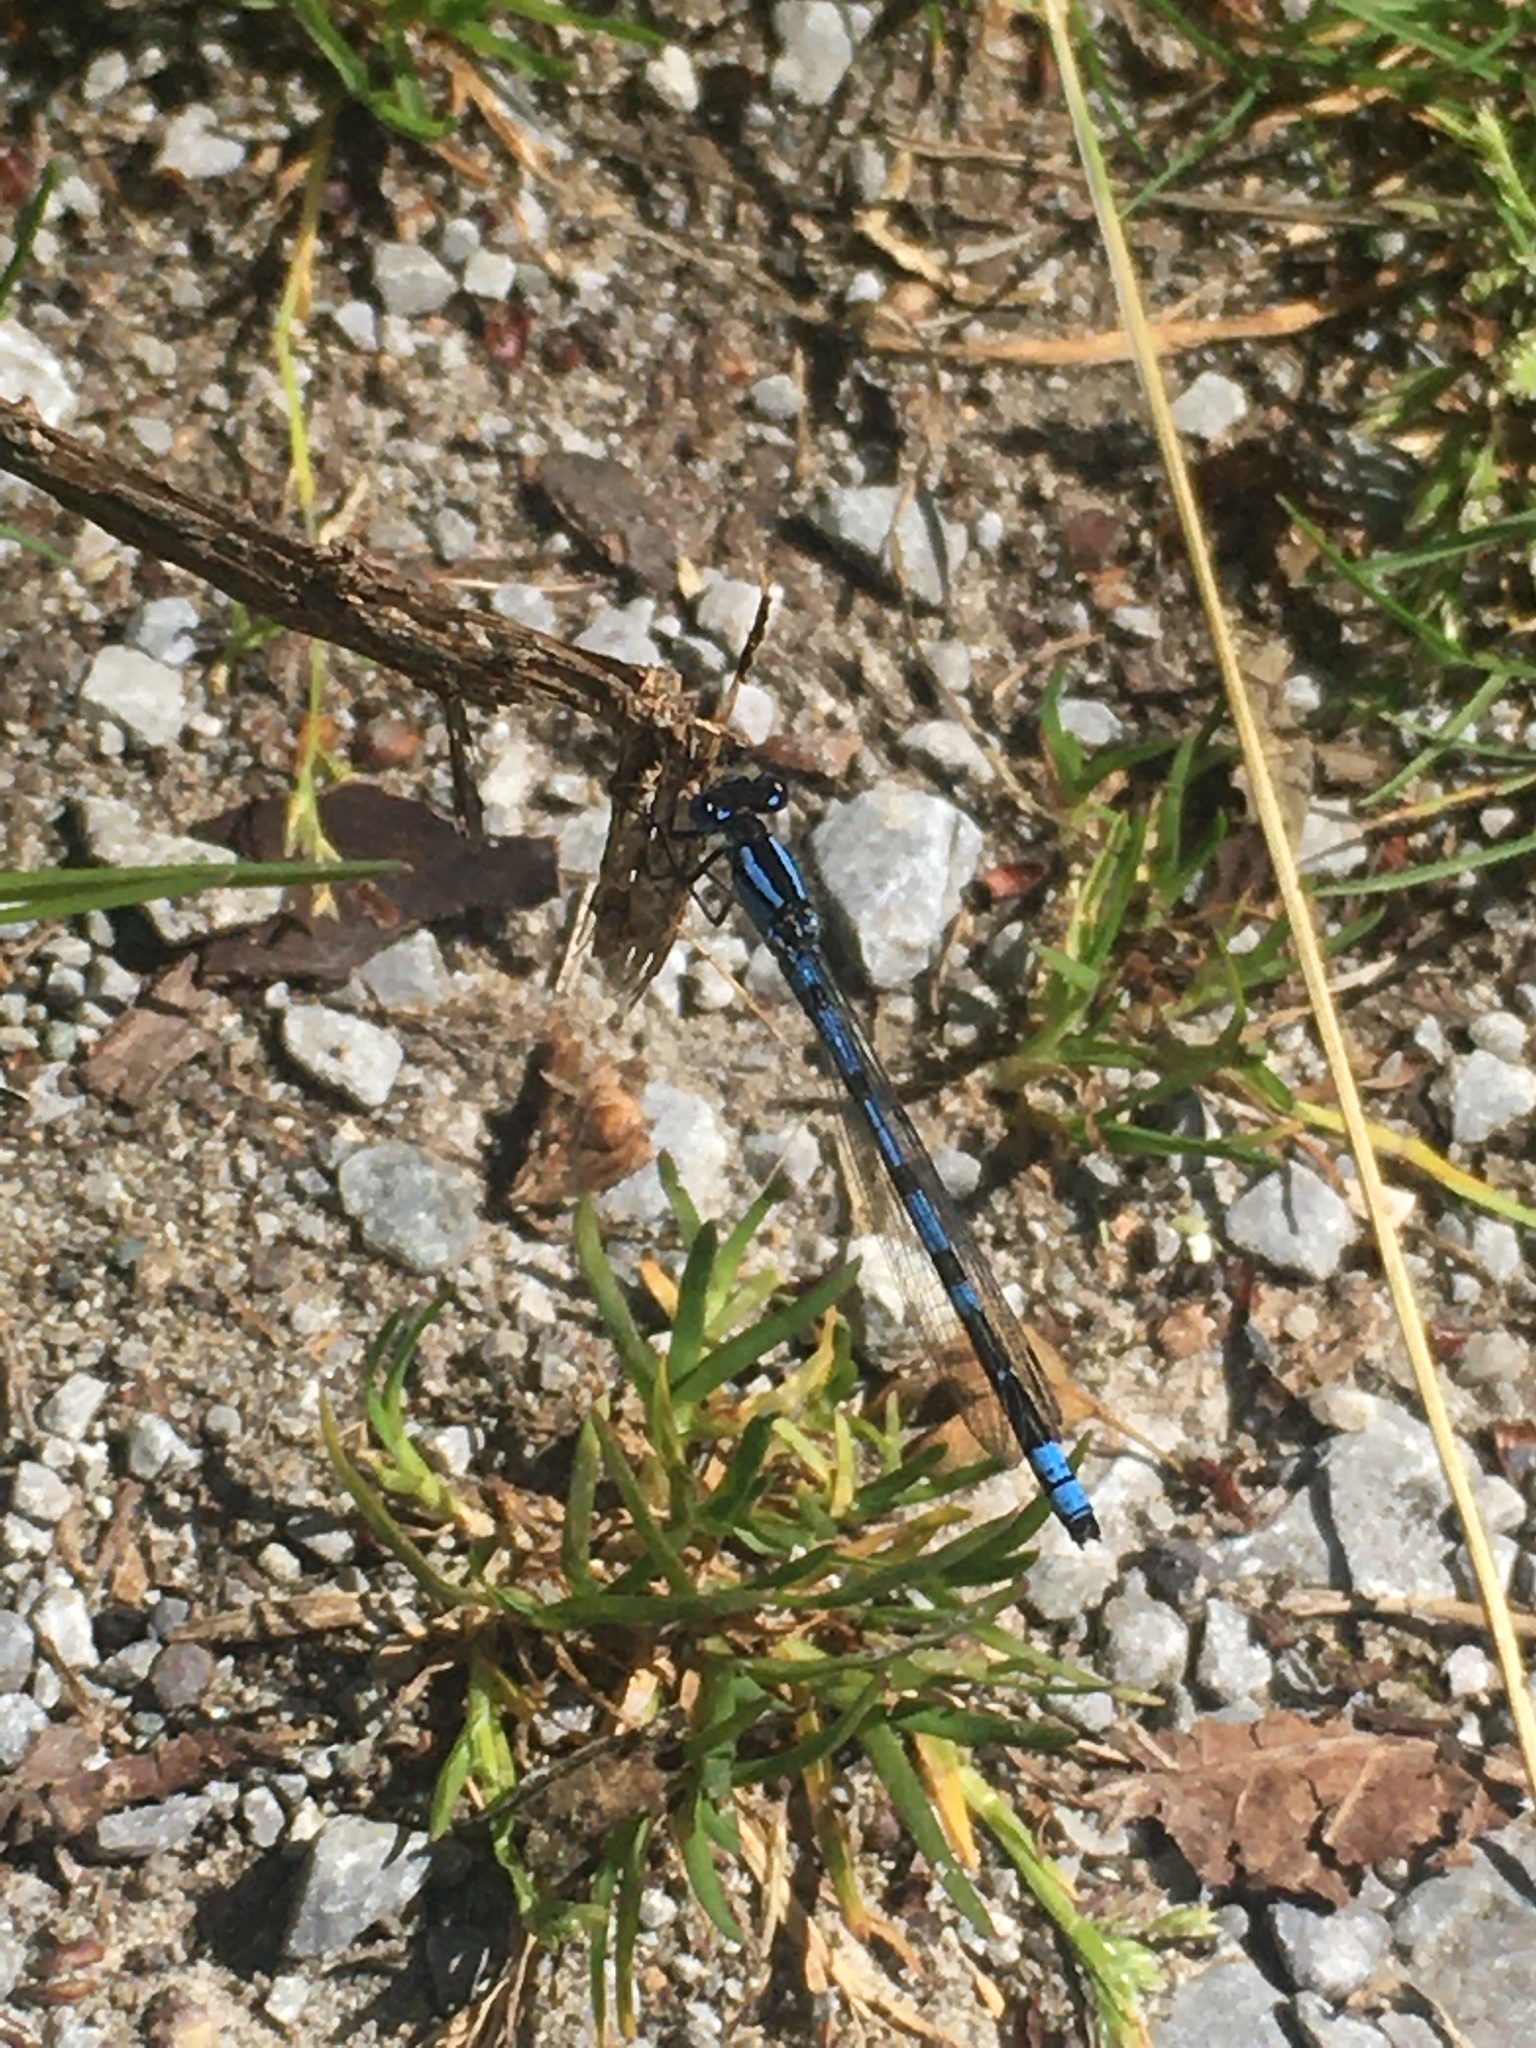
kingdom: Animalia
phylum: Arthropoda
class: Insecta
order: Odonata
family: Coenagrionidae
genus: Enallagma
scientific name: Enallagma cyathigerum
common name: Common blue damselfly
